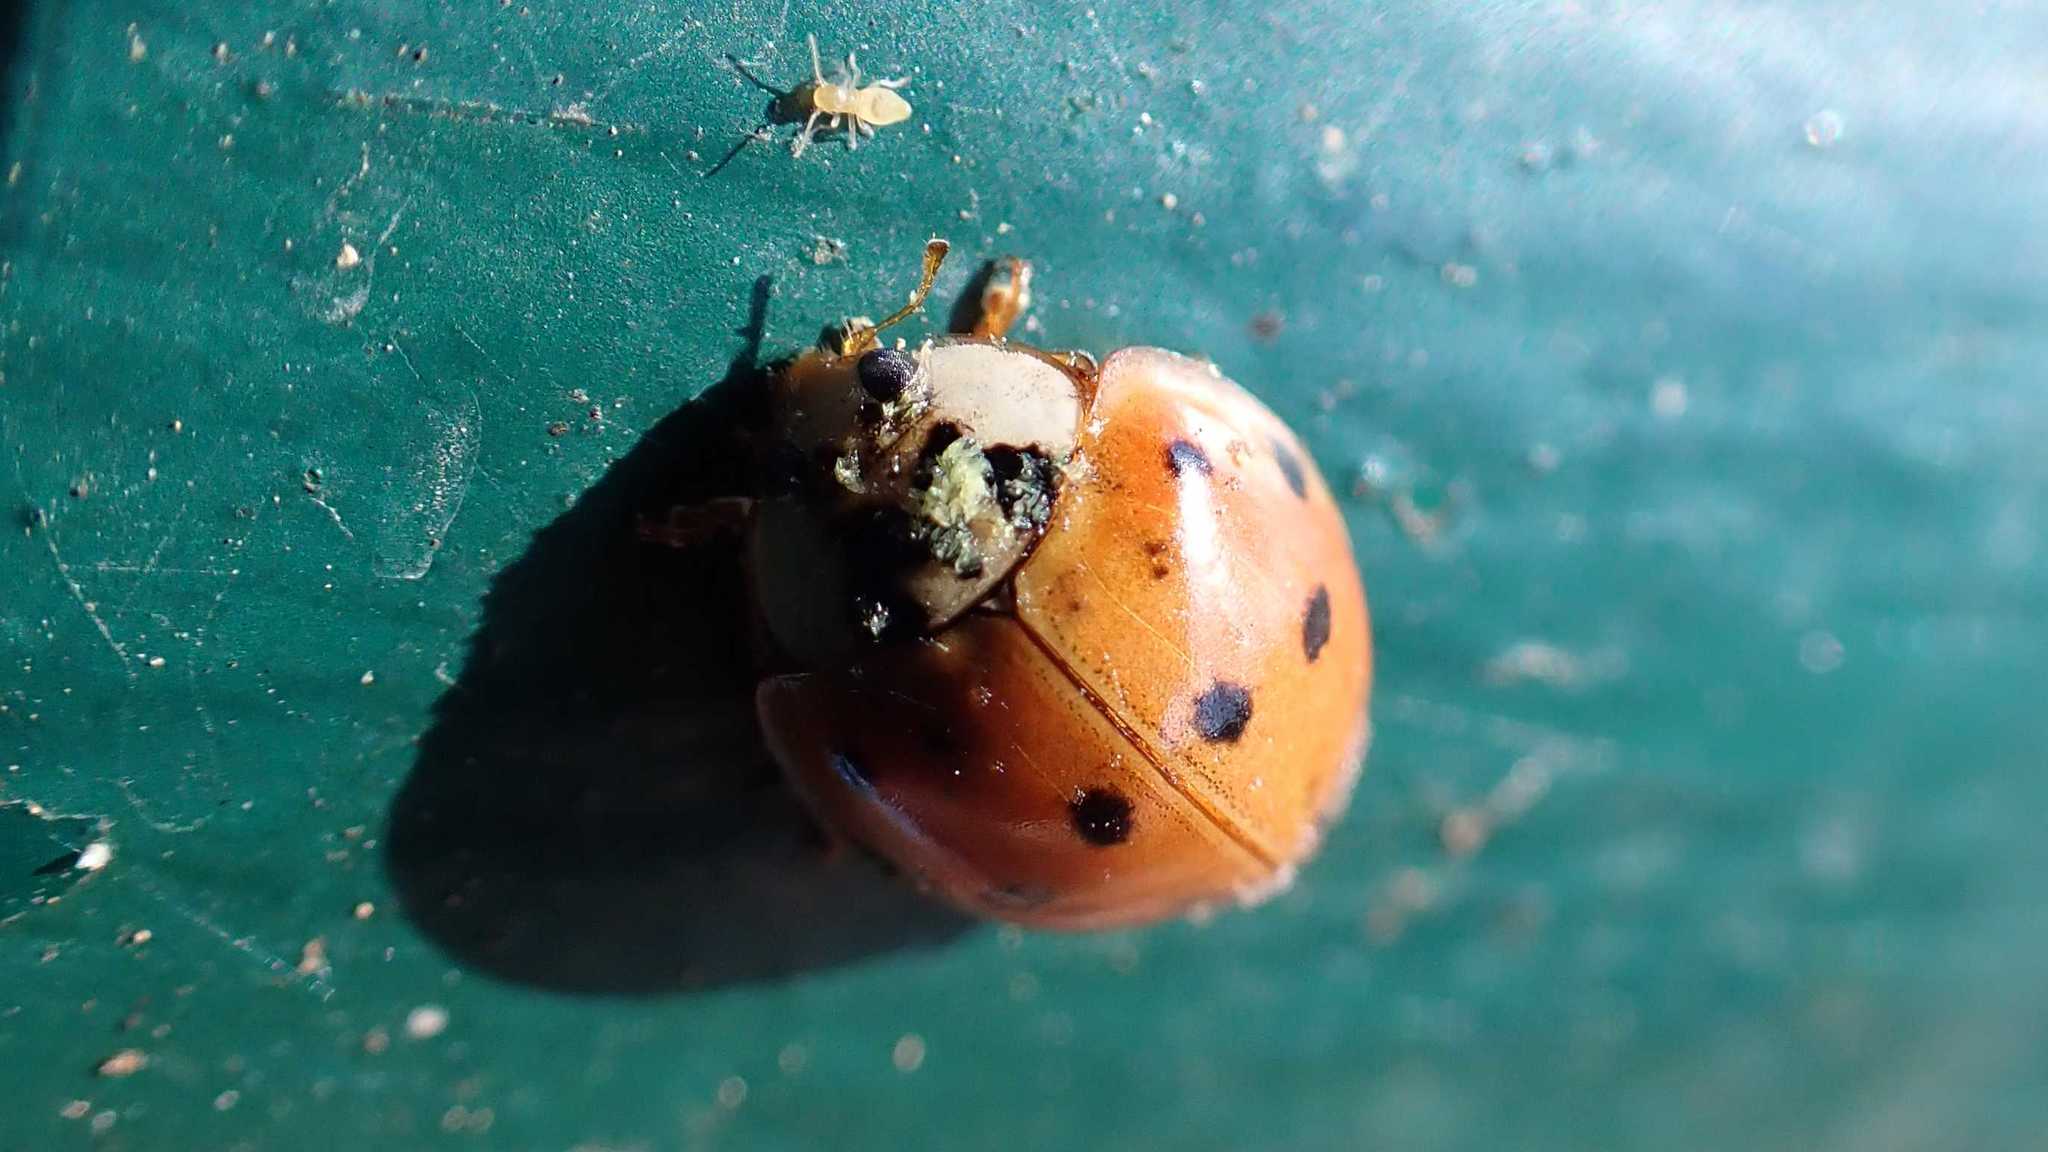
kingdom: Animalia
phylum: Arthropoda
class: Insecta
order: Coleoptera
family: Coccinellidae
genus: Harmonia
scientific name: Harmonia axyridis
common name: Harlequin ladybird
